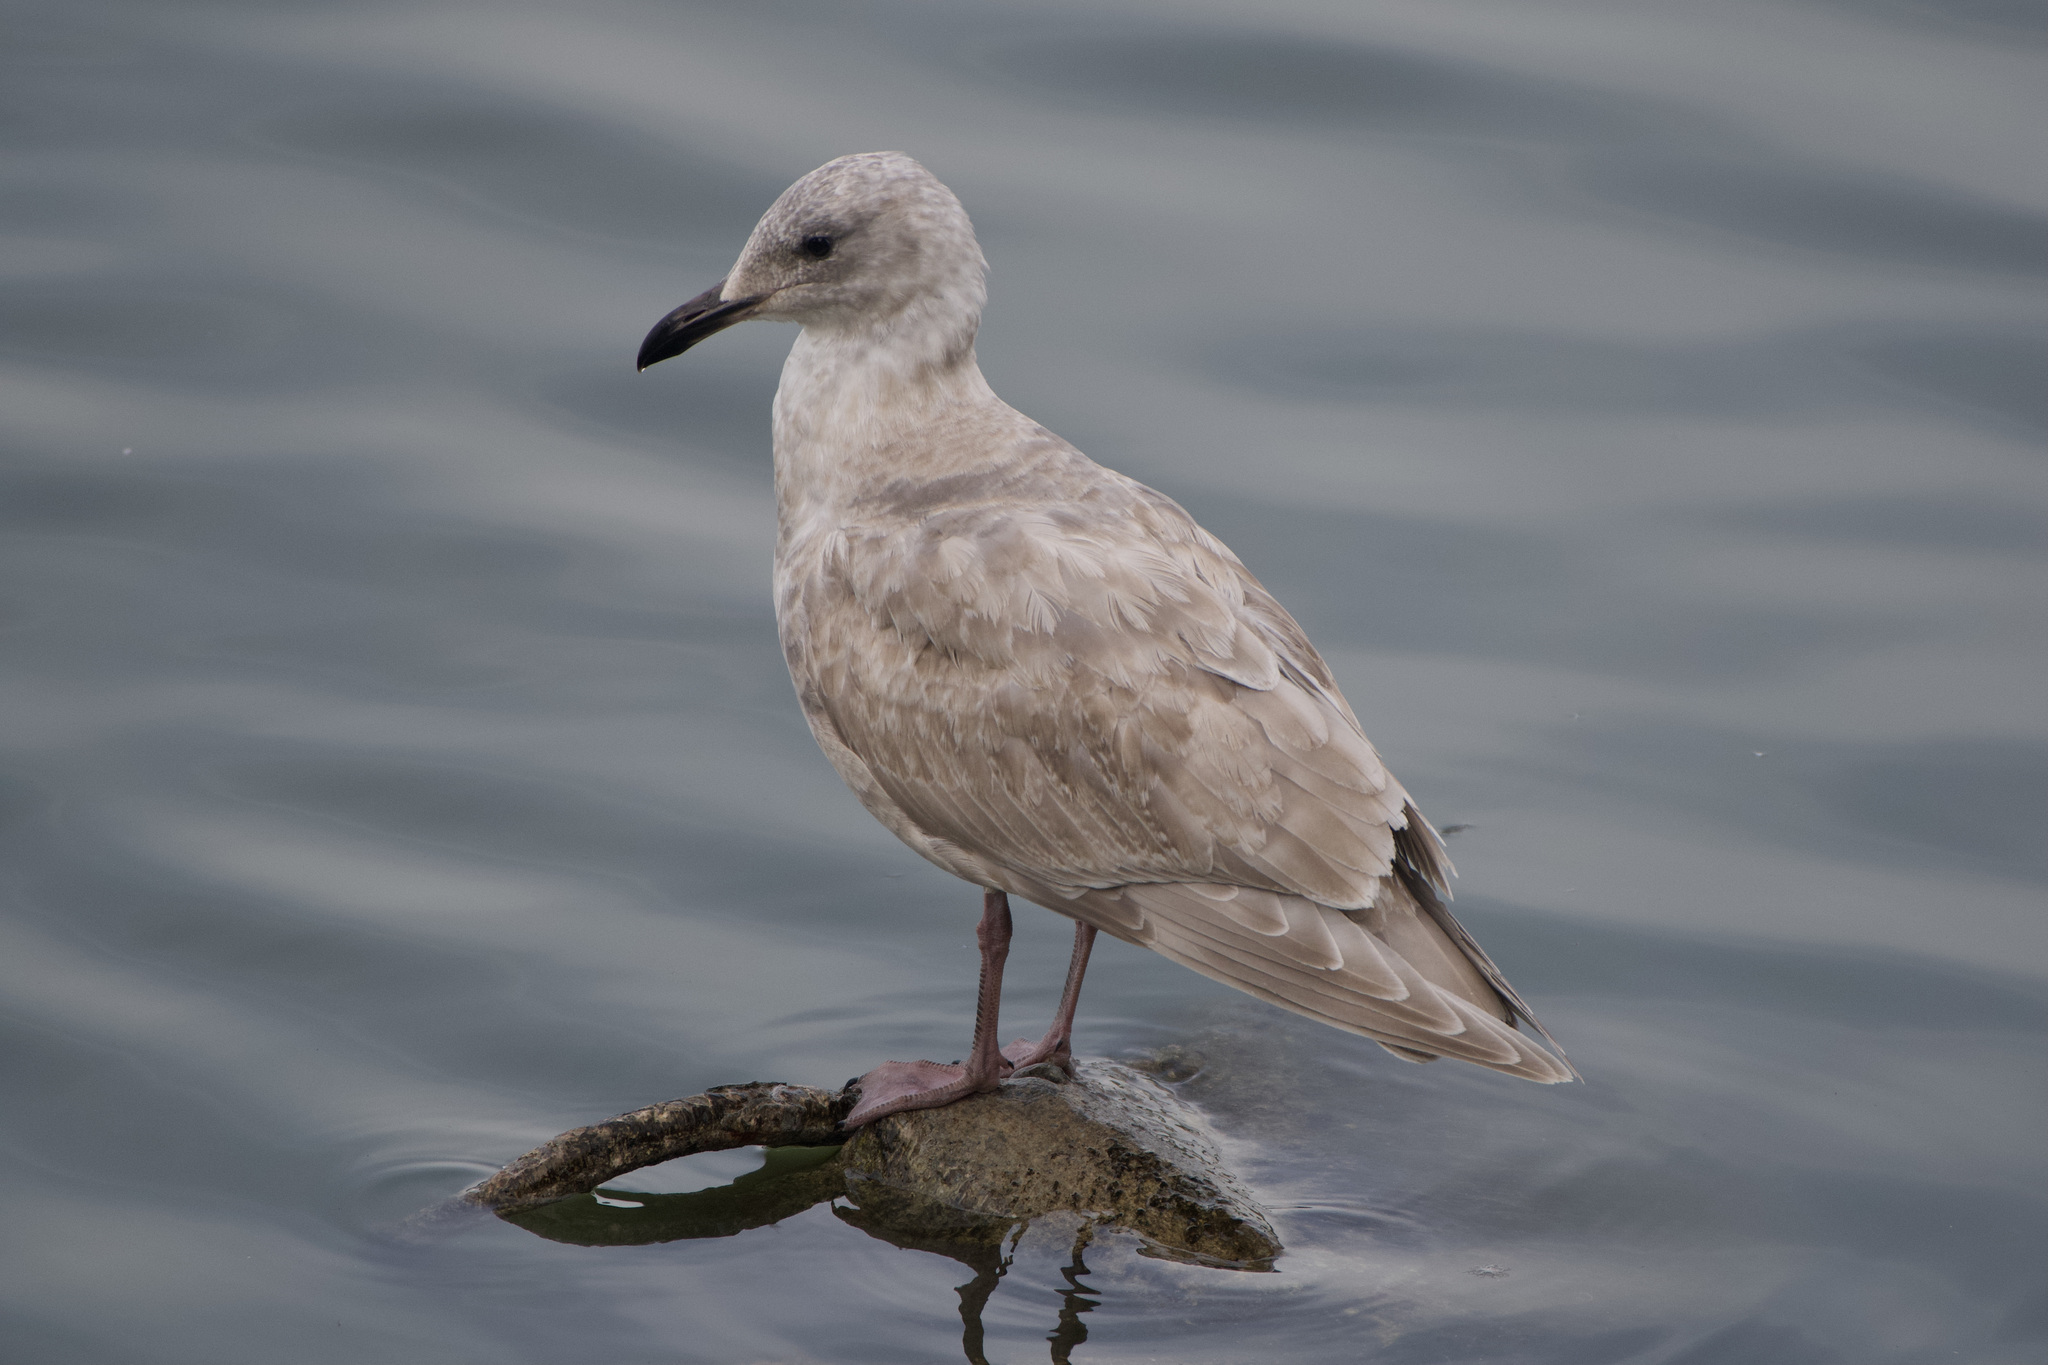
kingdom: Animalia
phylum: Chordata
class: Aves
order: Charadriiformes
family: Laridae
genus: Larus
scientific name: Larus glaucescens
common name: Glaucous-winged gull
